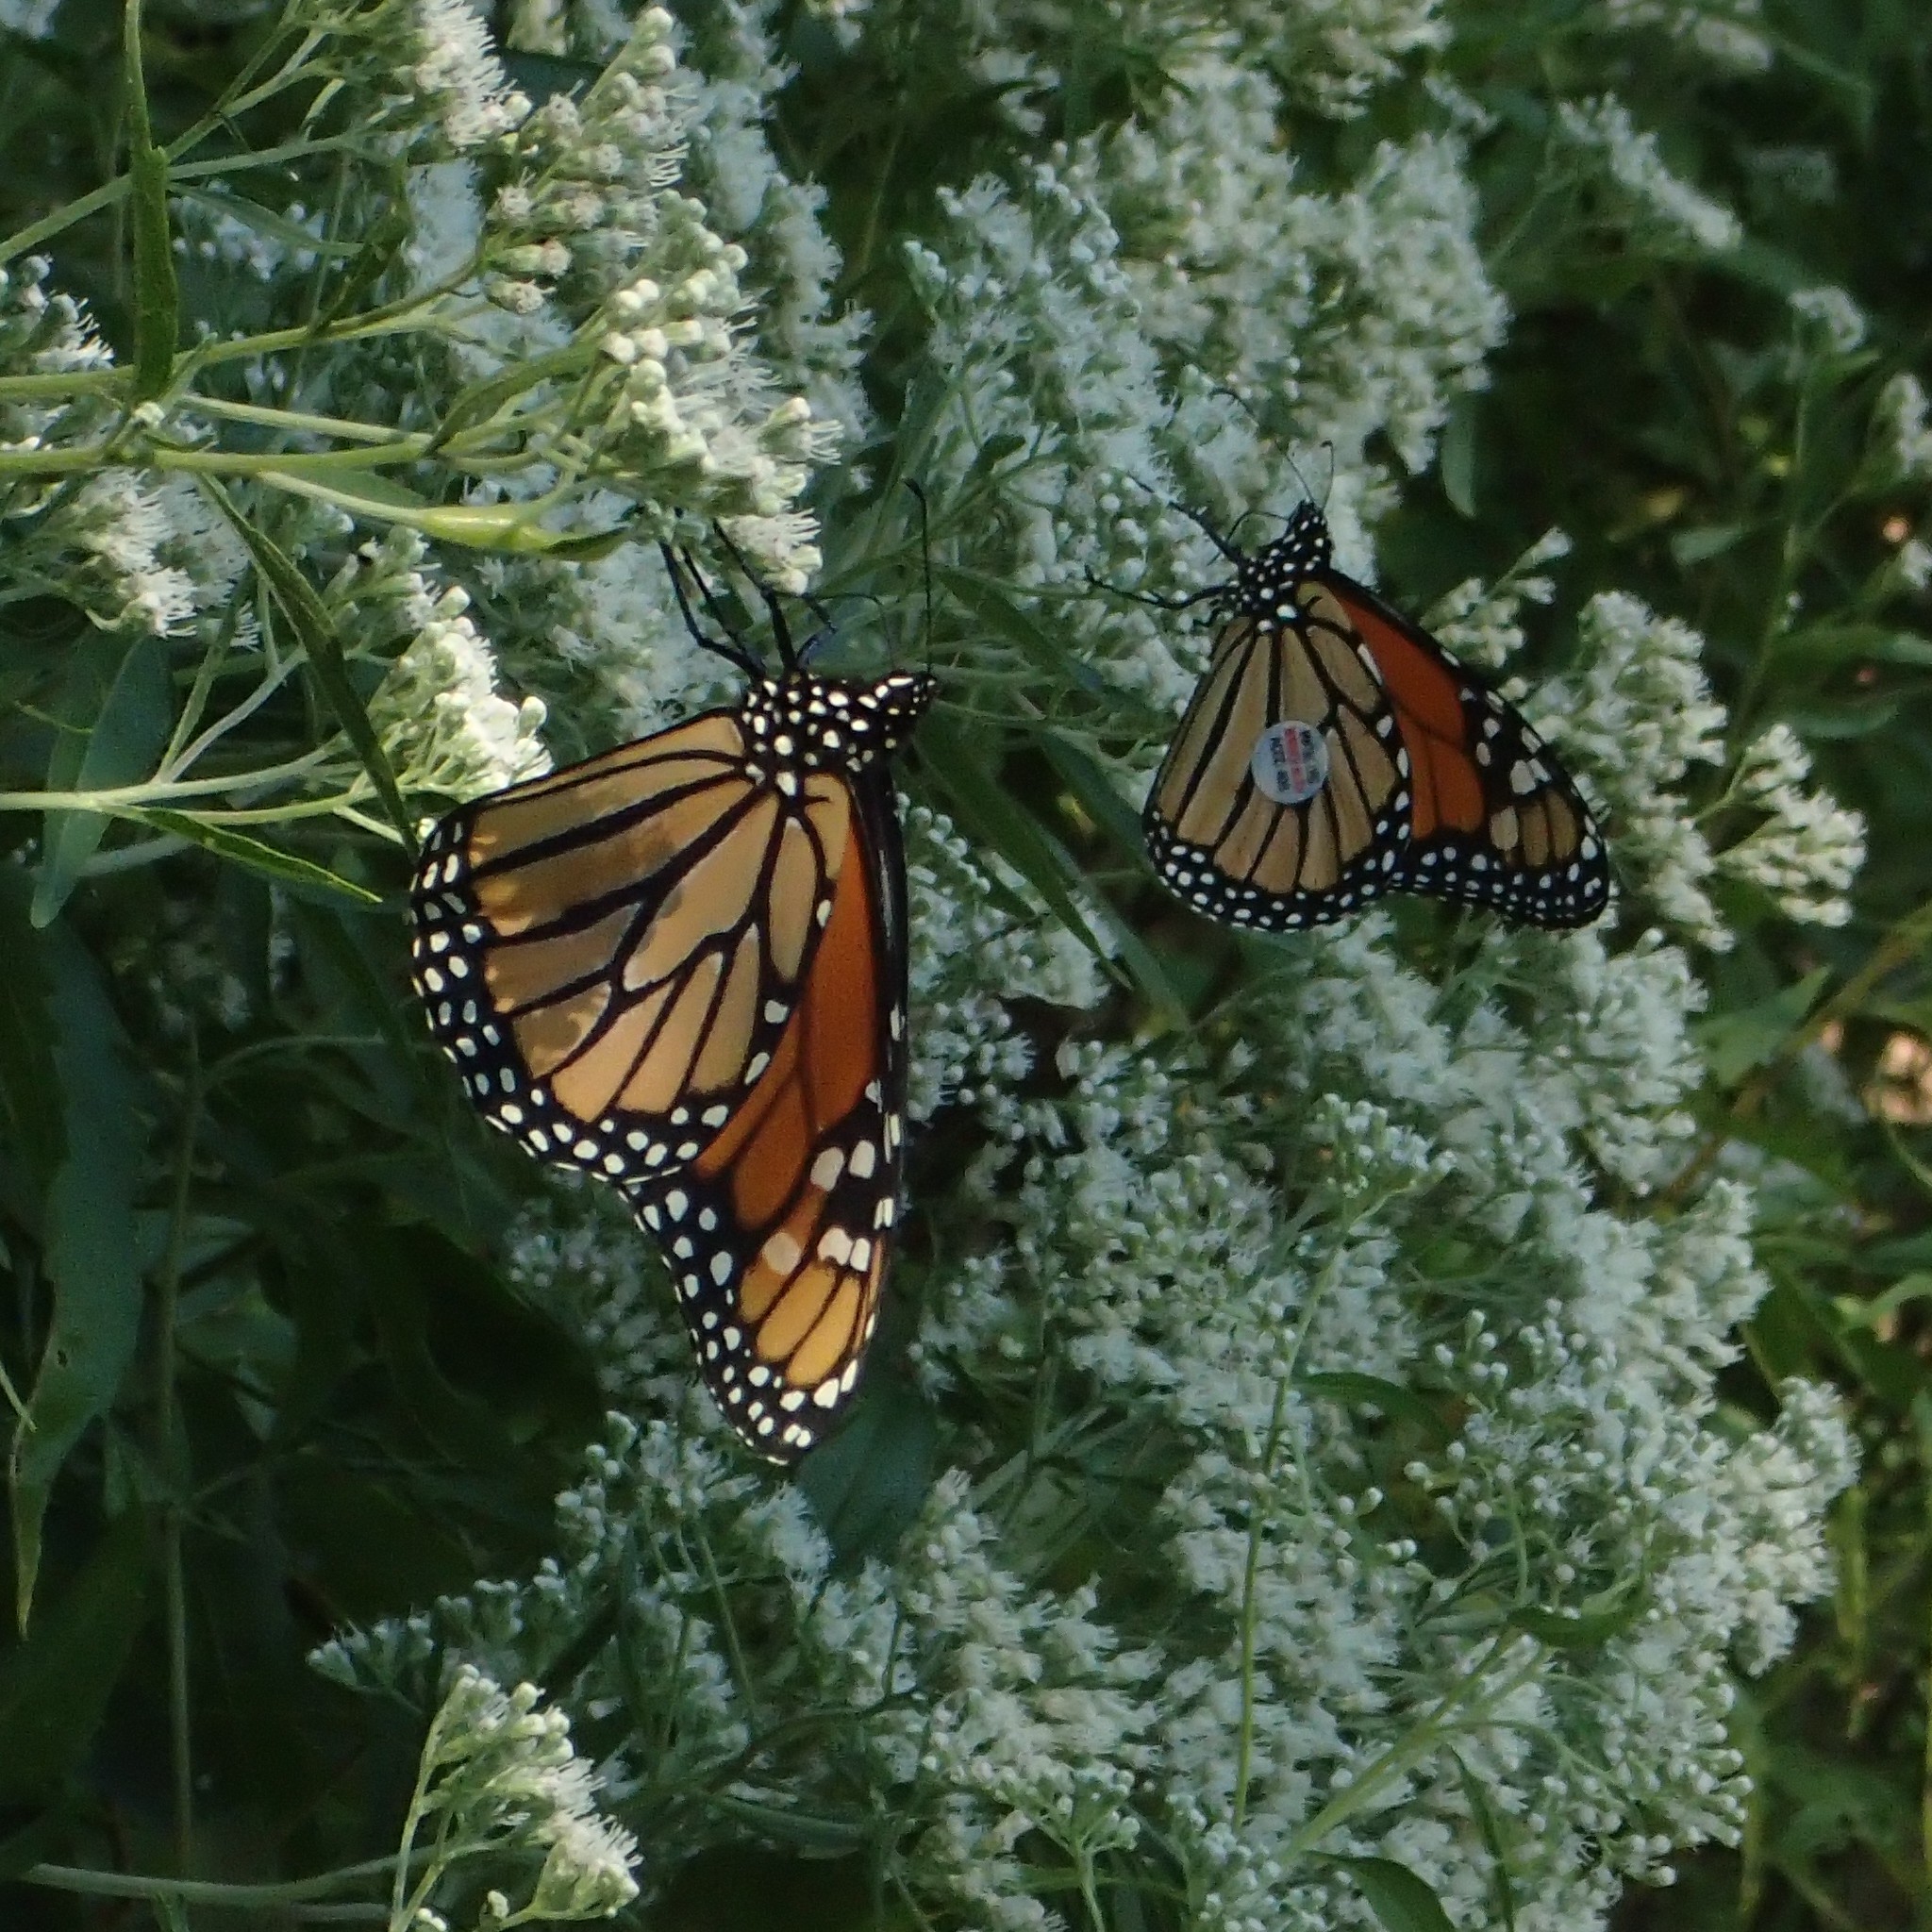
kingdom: Animalia
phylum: Arthropoda
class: Insecta
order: Lepidoptera
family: Nymphalidae
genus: Danaus
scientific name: Danaus plexippus
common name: Monarch
